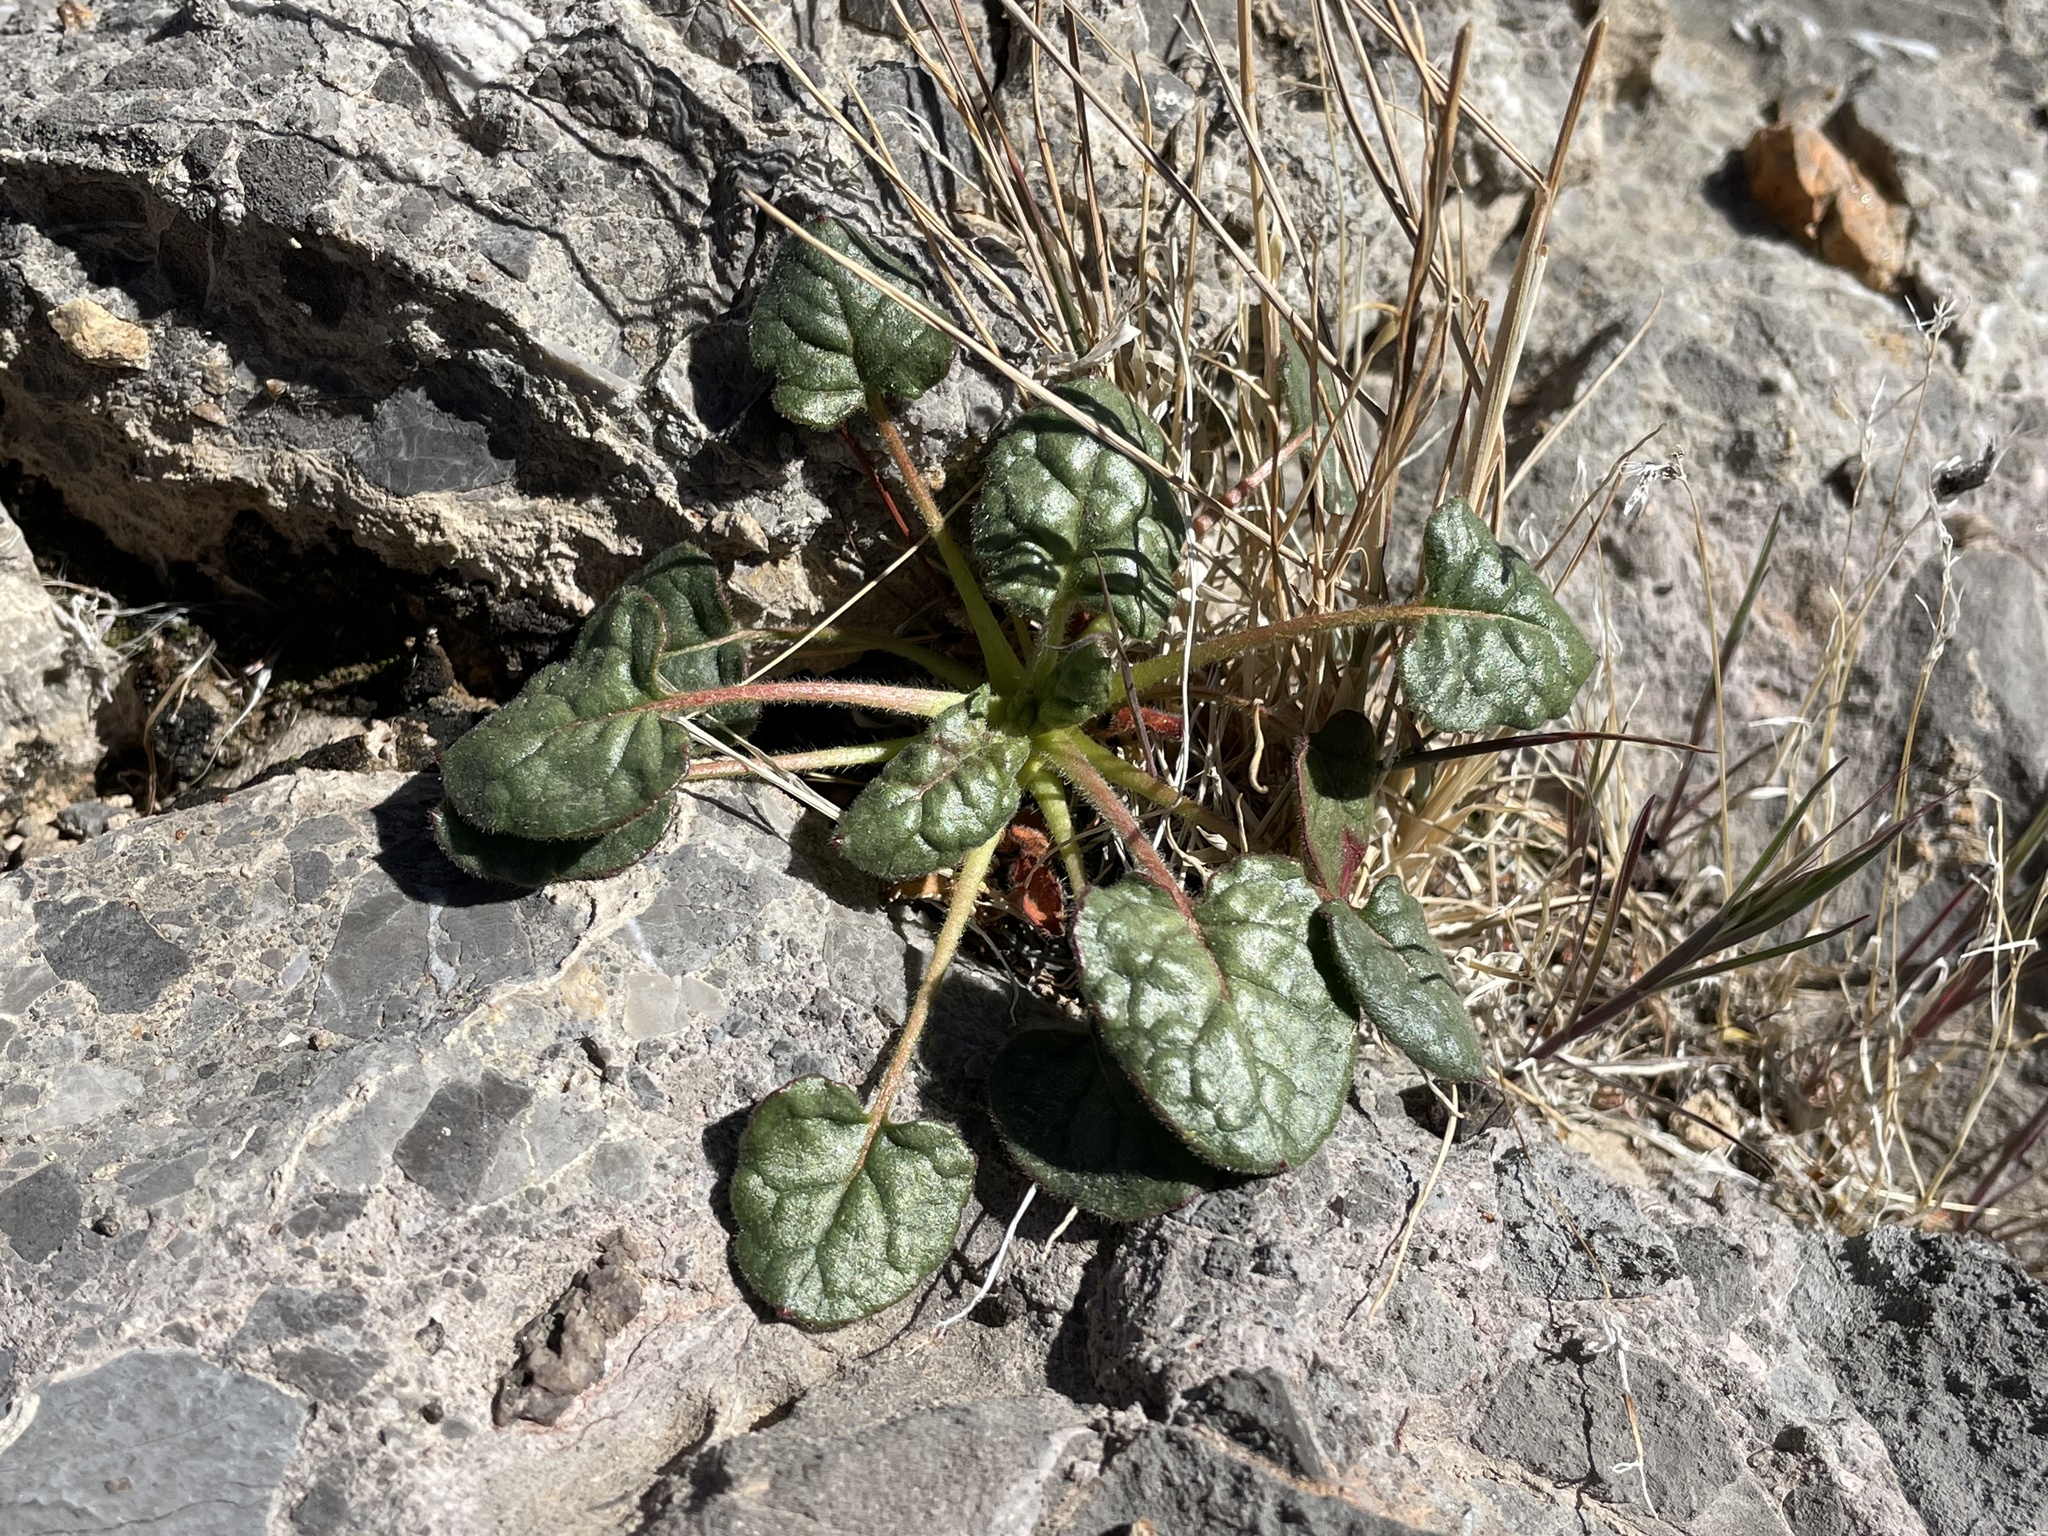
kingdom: Plantae
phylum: Tracheophyta
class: Magnoliopsida
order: Caryophyllales
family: Polygonaceae
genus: Eriogonum
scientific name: Eriogonum inflatum
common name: Desert trumpet
